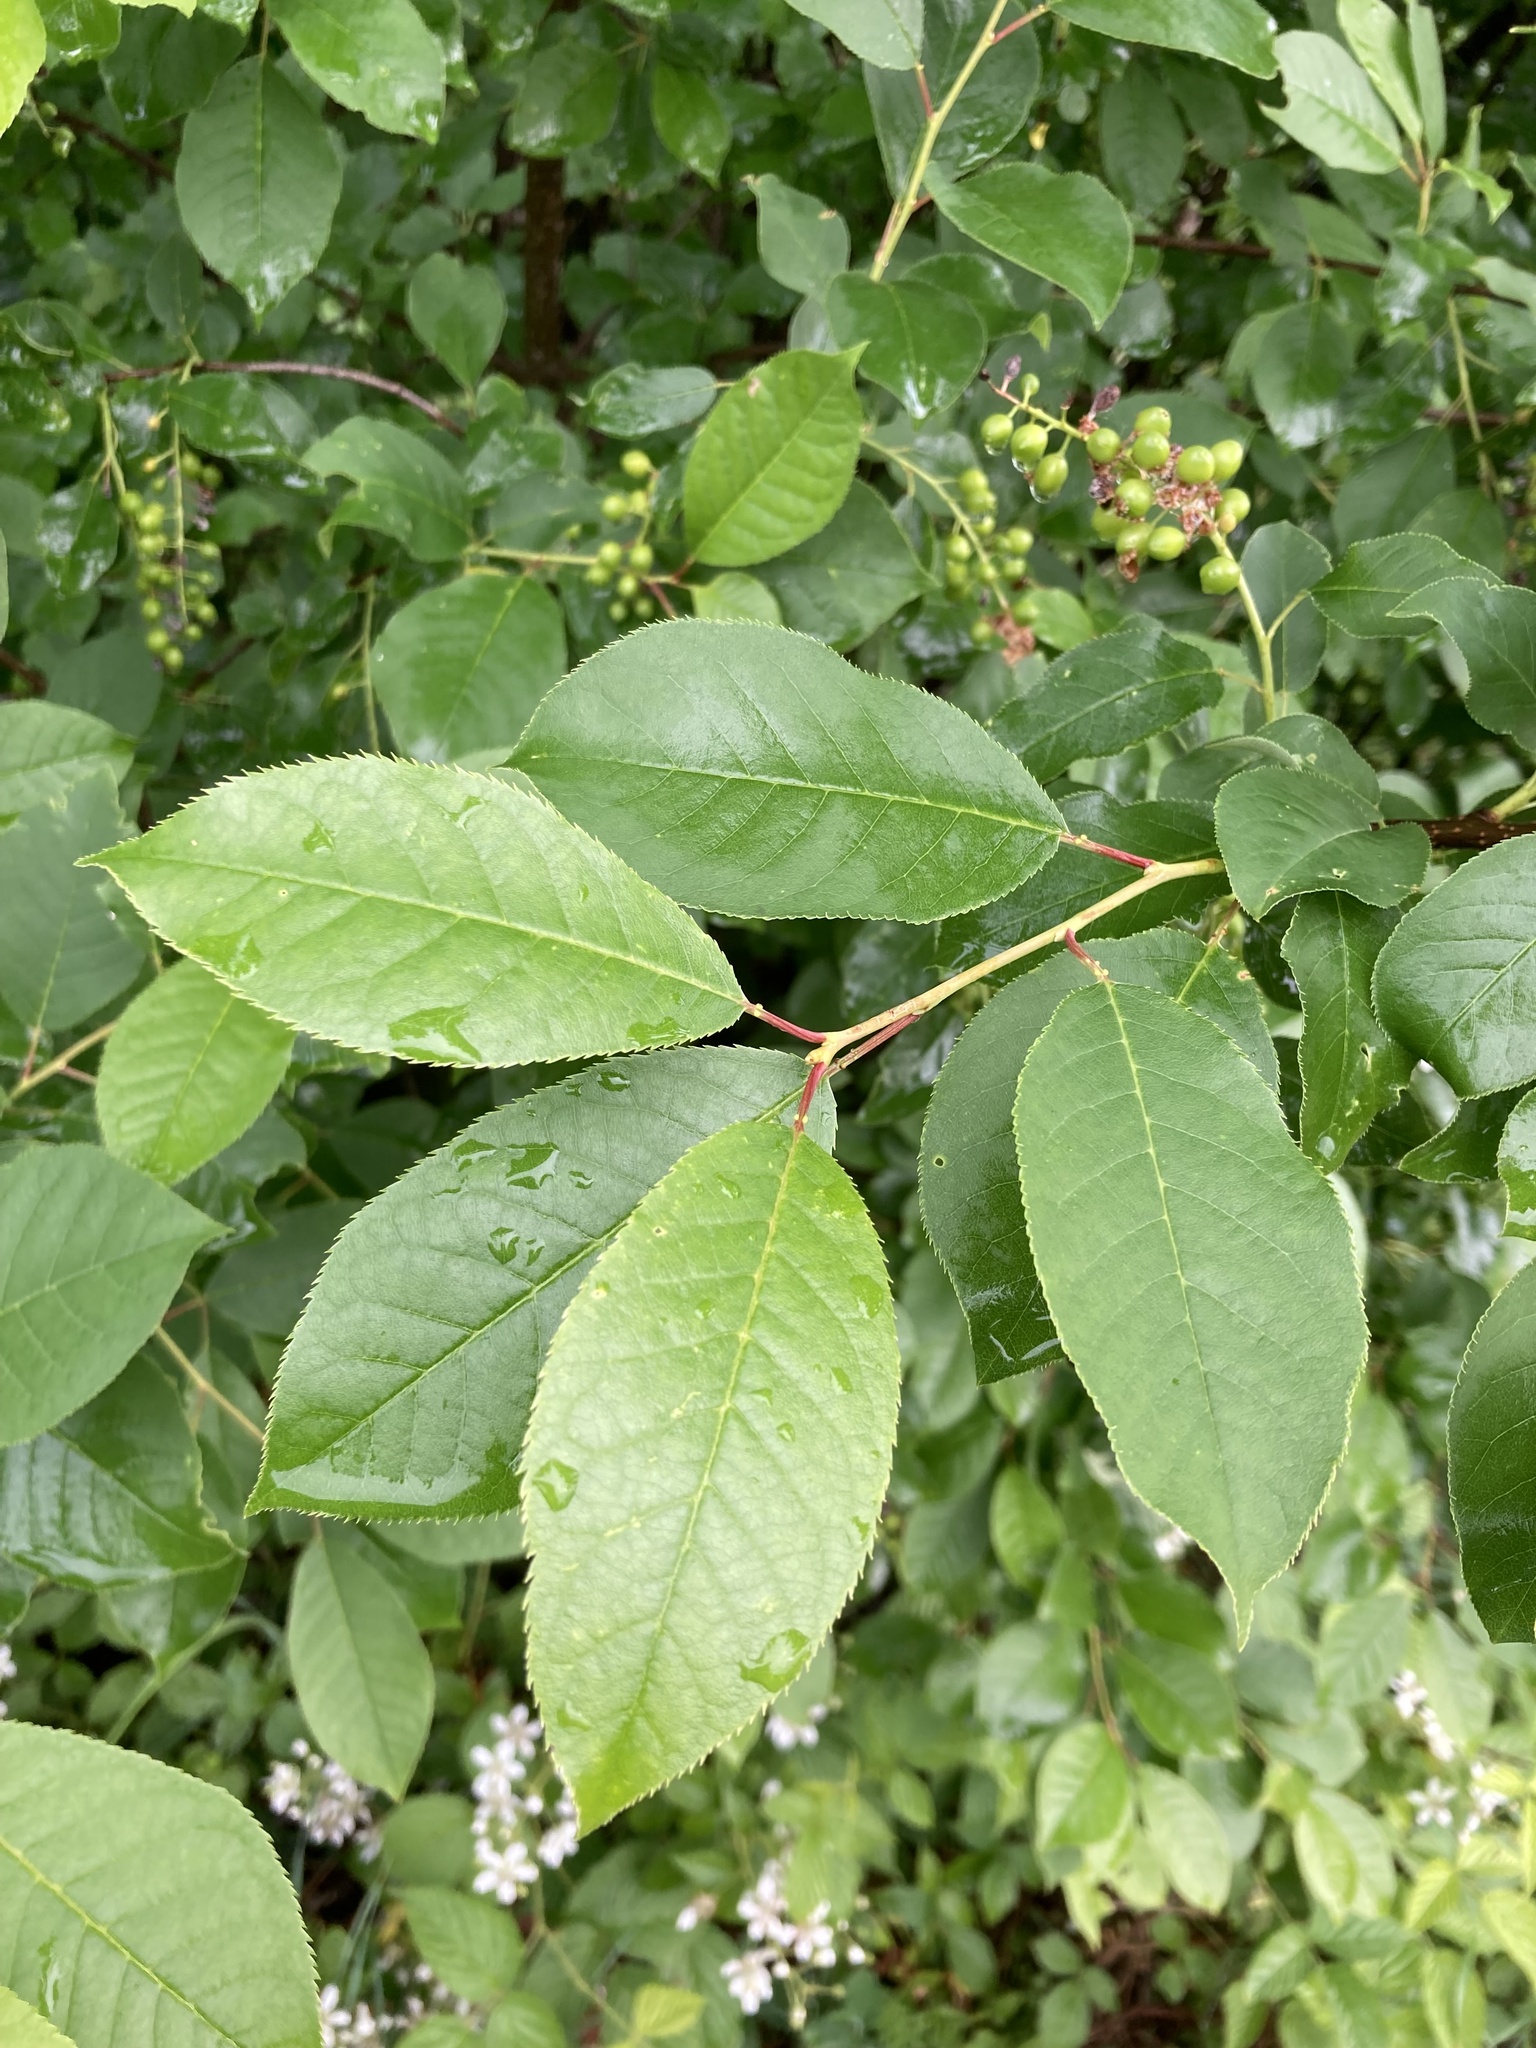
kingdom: Plantae
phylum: Tracheophyta
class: Magnoliopsida
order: Rosales
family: Rosaceae
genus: Prunus
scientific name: Prunus virginiana
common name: Chokecherry
